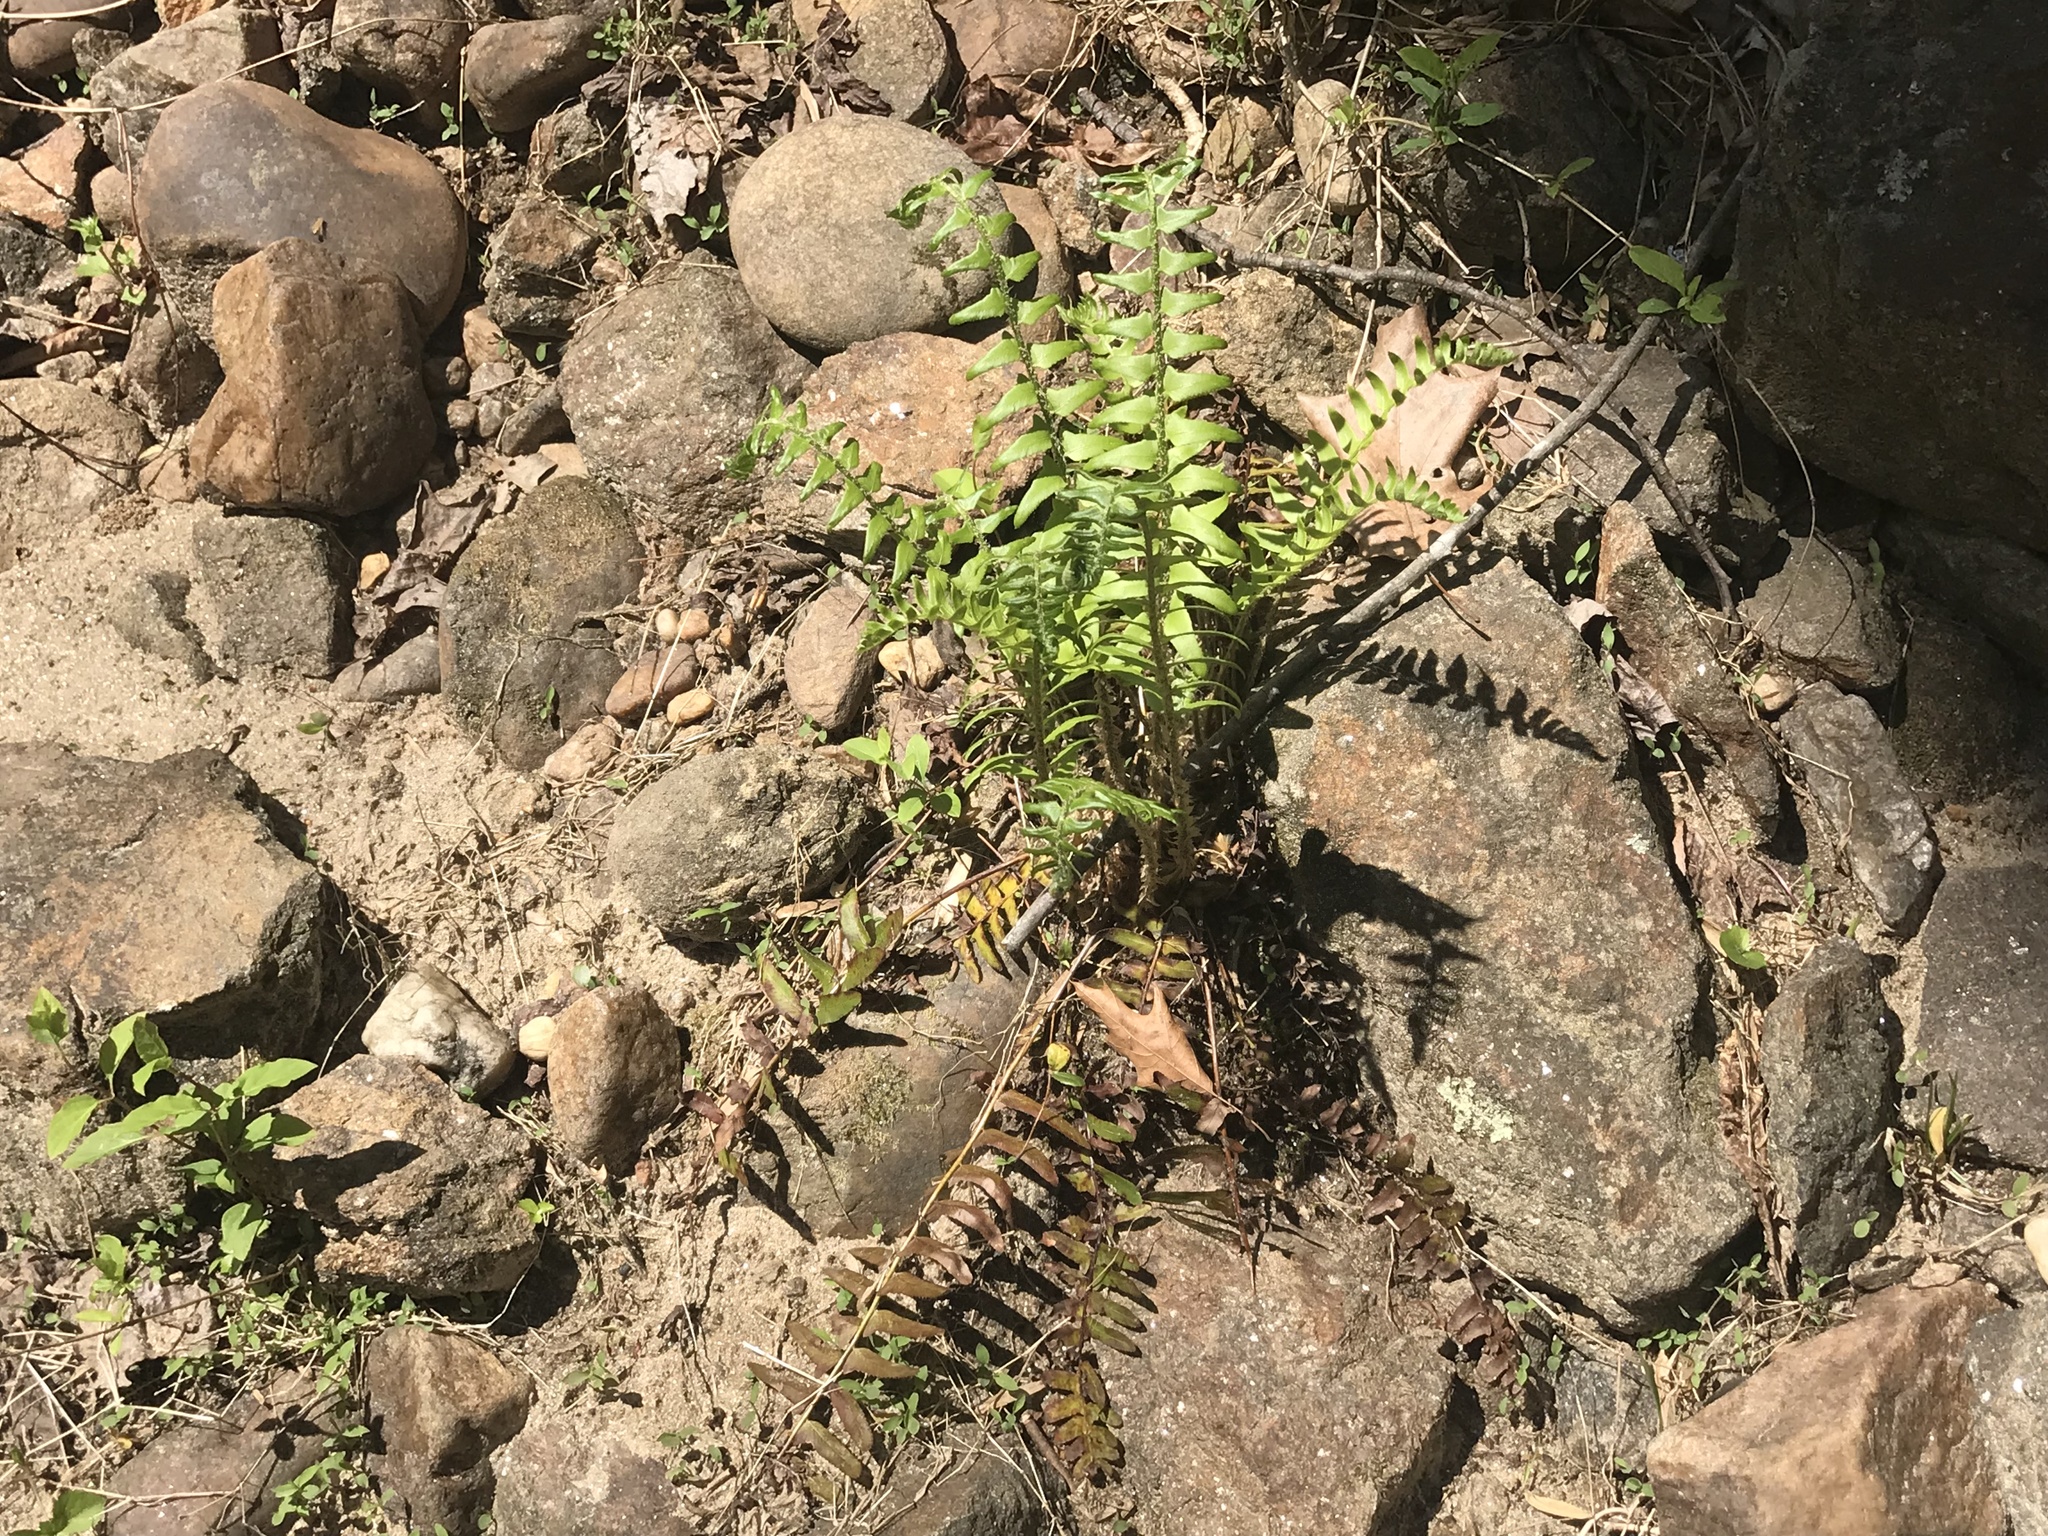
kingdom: Plantae
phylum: Tracheophyta
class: Polypodiopsida
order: Polypodiales
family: Dryopteridaceae
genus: Polystichum
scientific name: Polystichum acrostichoides
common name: Christmas fern
